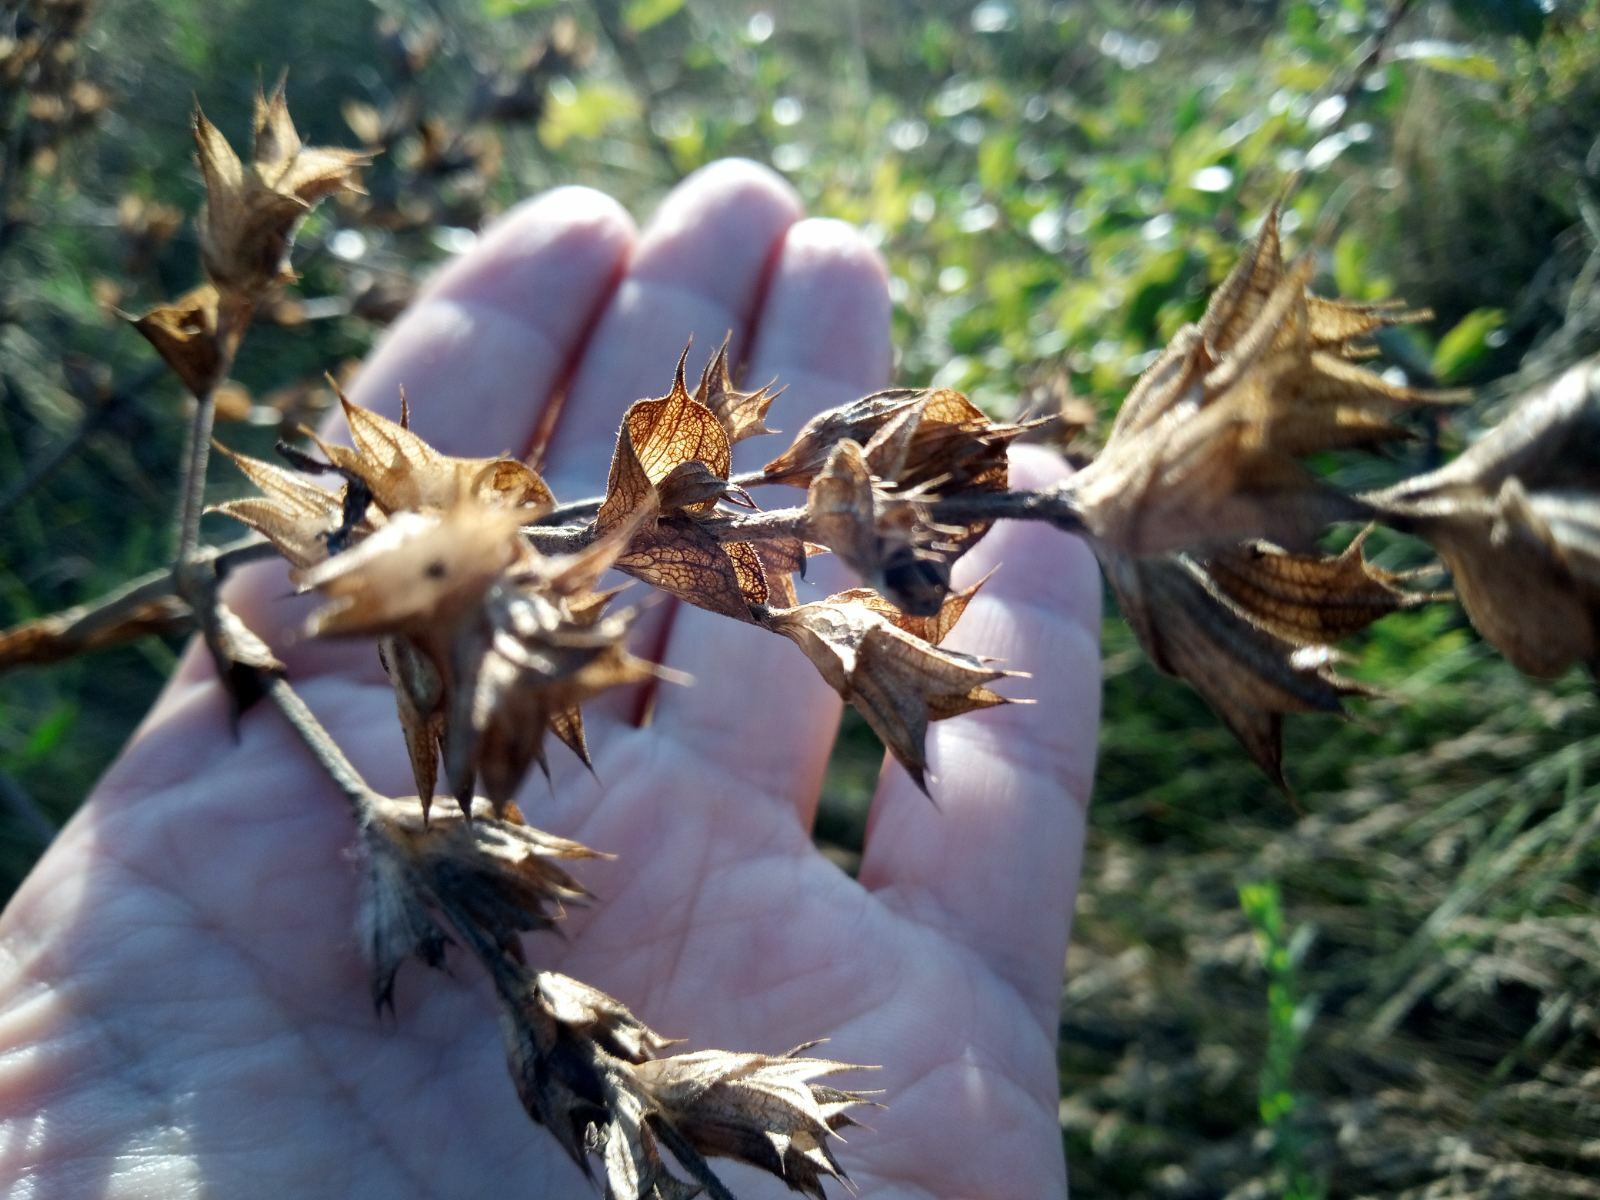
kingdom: Plantae
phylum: Tracheophyta
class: Magnoliopsida
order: Lamiales
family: Lamiaceae
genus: Salvia
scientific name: Salvia aethiopis
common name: Mediterranean sage
